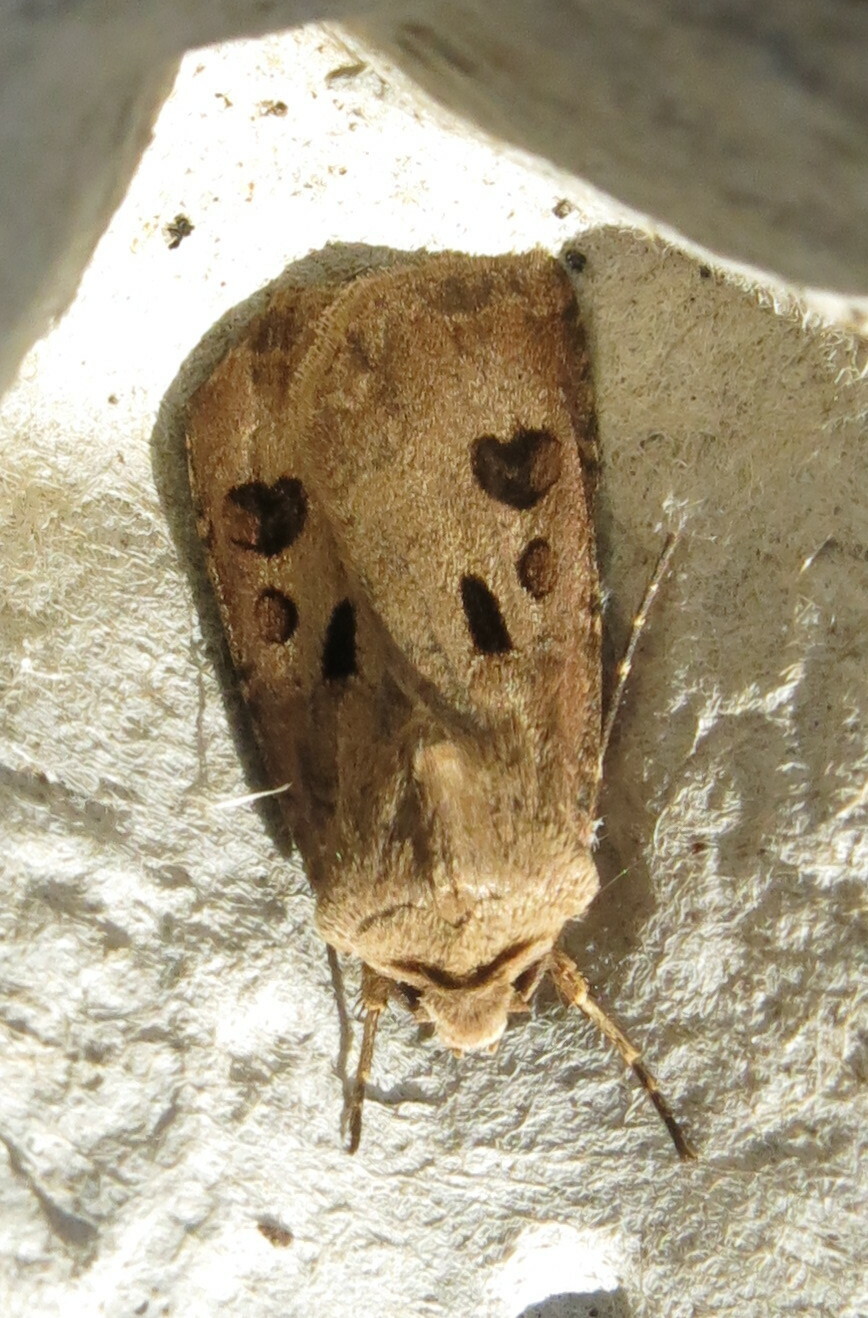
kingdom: Animalia
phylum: Arthropoda
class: Insecta
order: Lepidoptera
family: Noctuidae
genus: Agrotis
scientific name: Agrotis exclamationis
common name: Heart and dart
